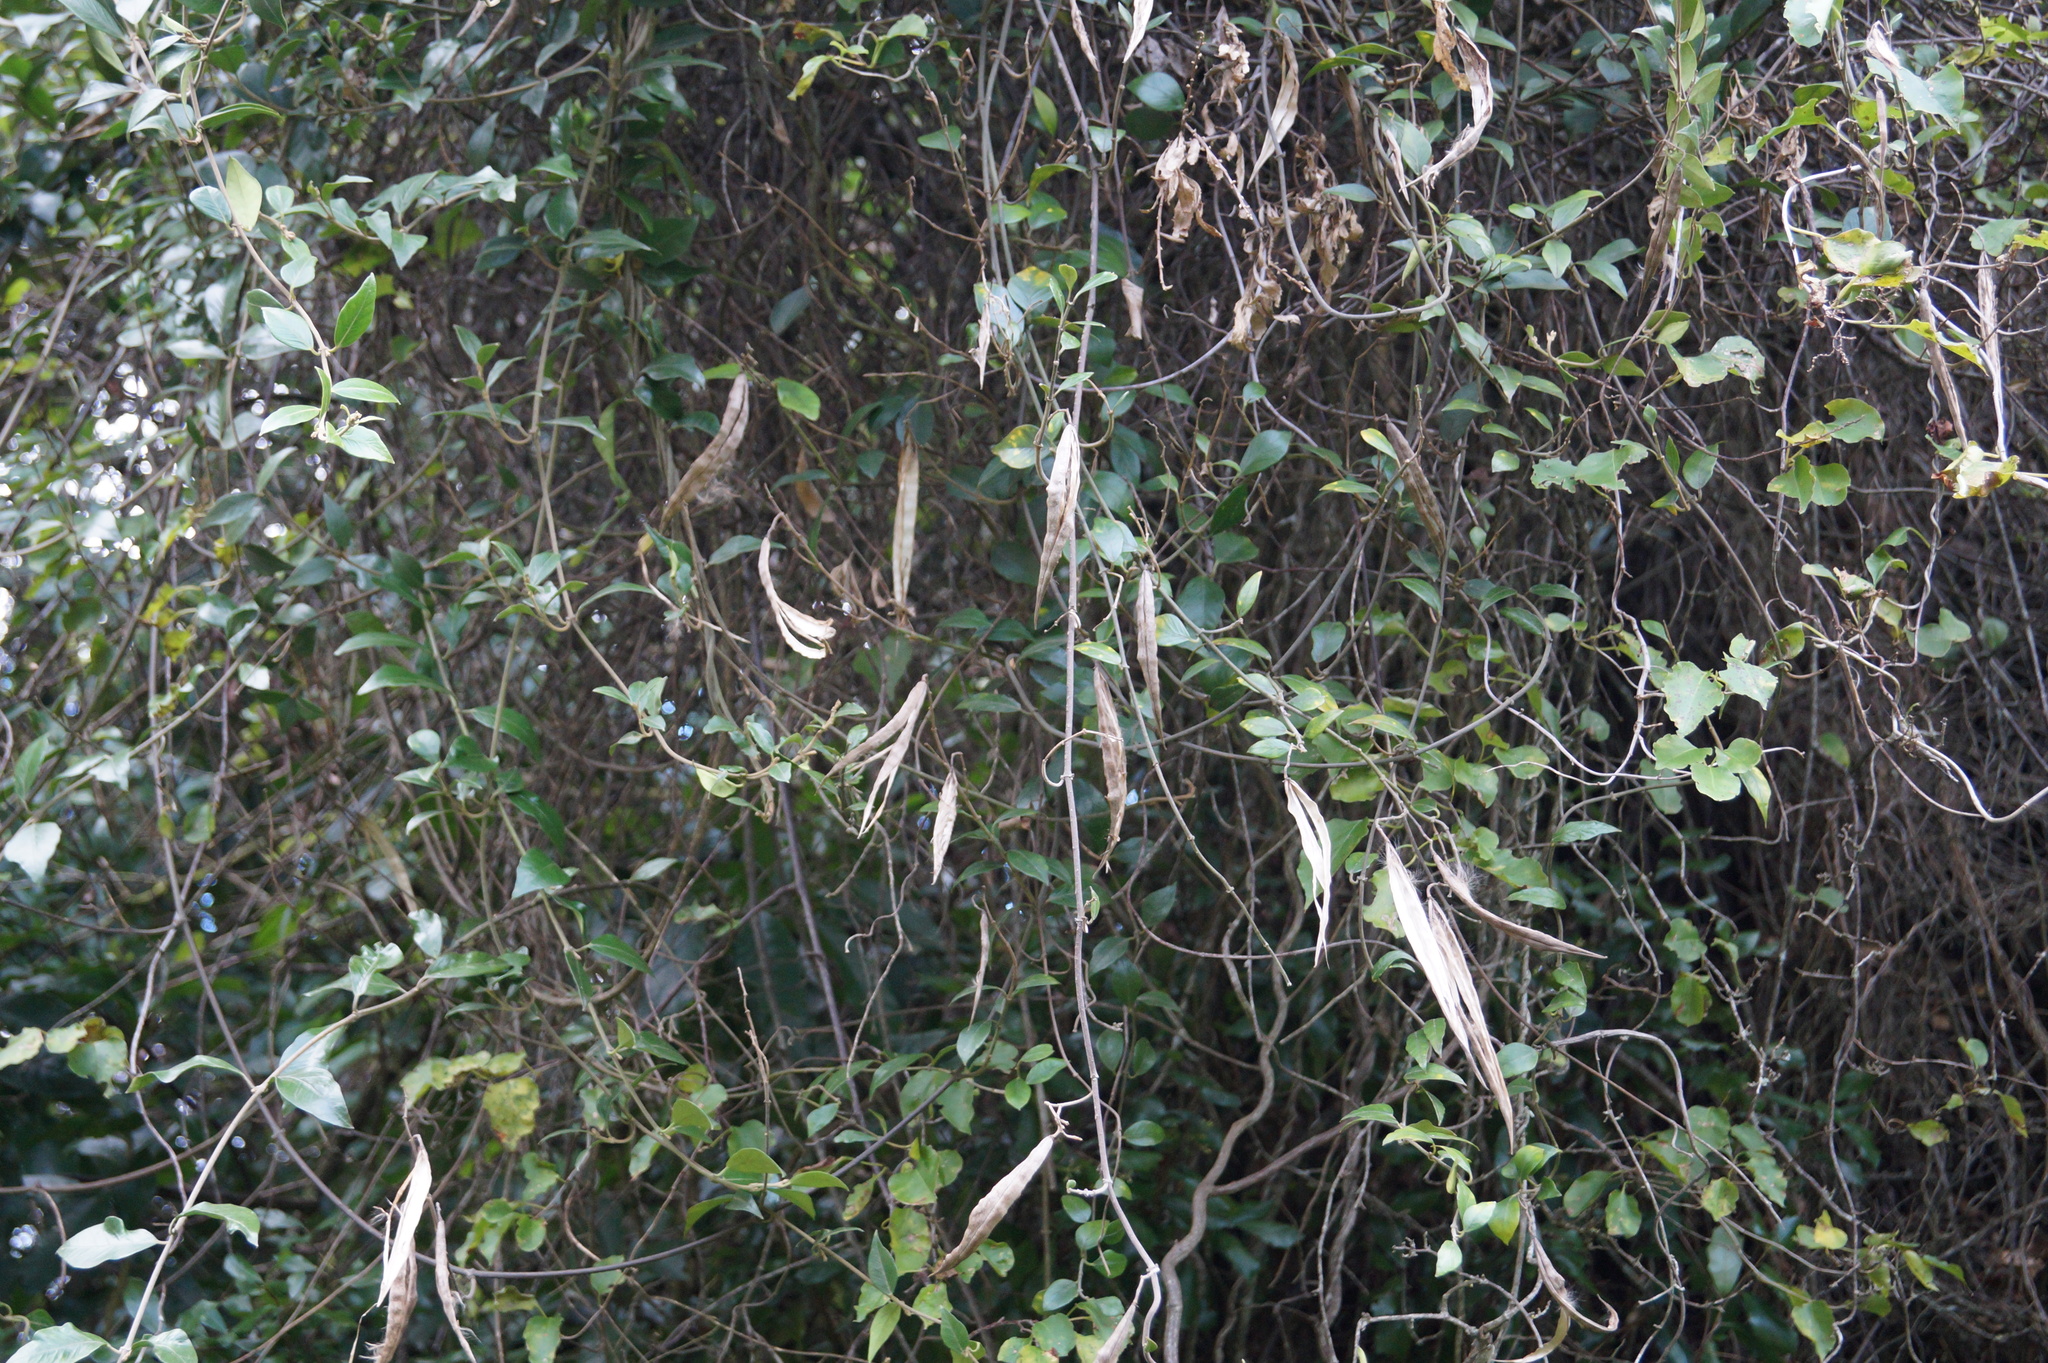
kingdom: Plantae
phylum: Tracheophyta
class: Magnoliopsida
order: Gentianales
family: Apocynaceae
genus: Parsonsia
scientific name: Parsonsia heterophylla
